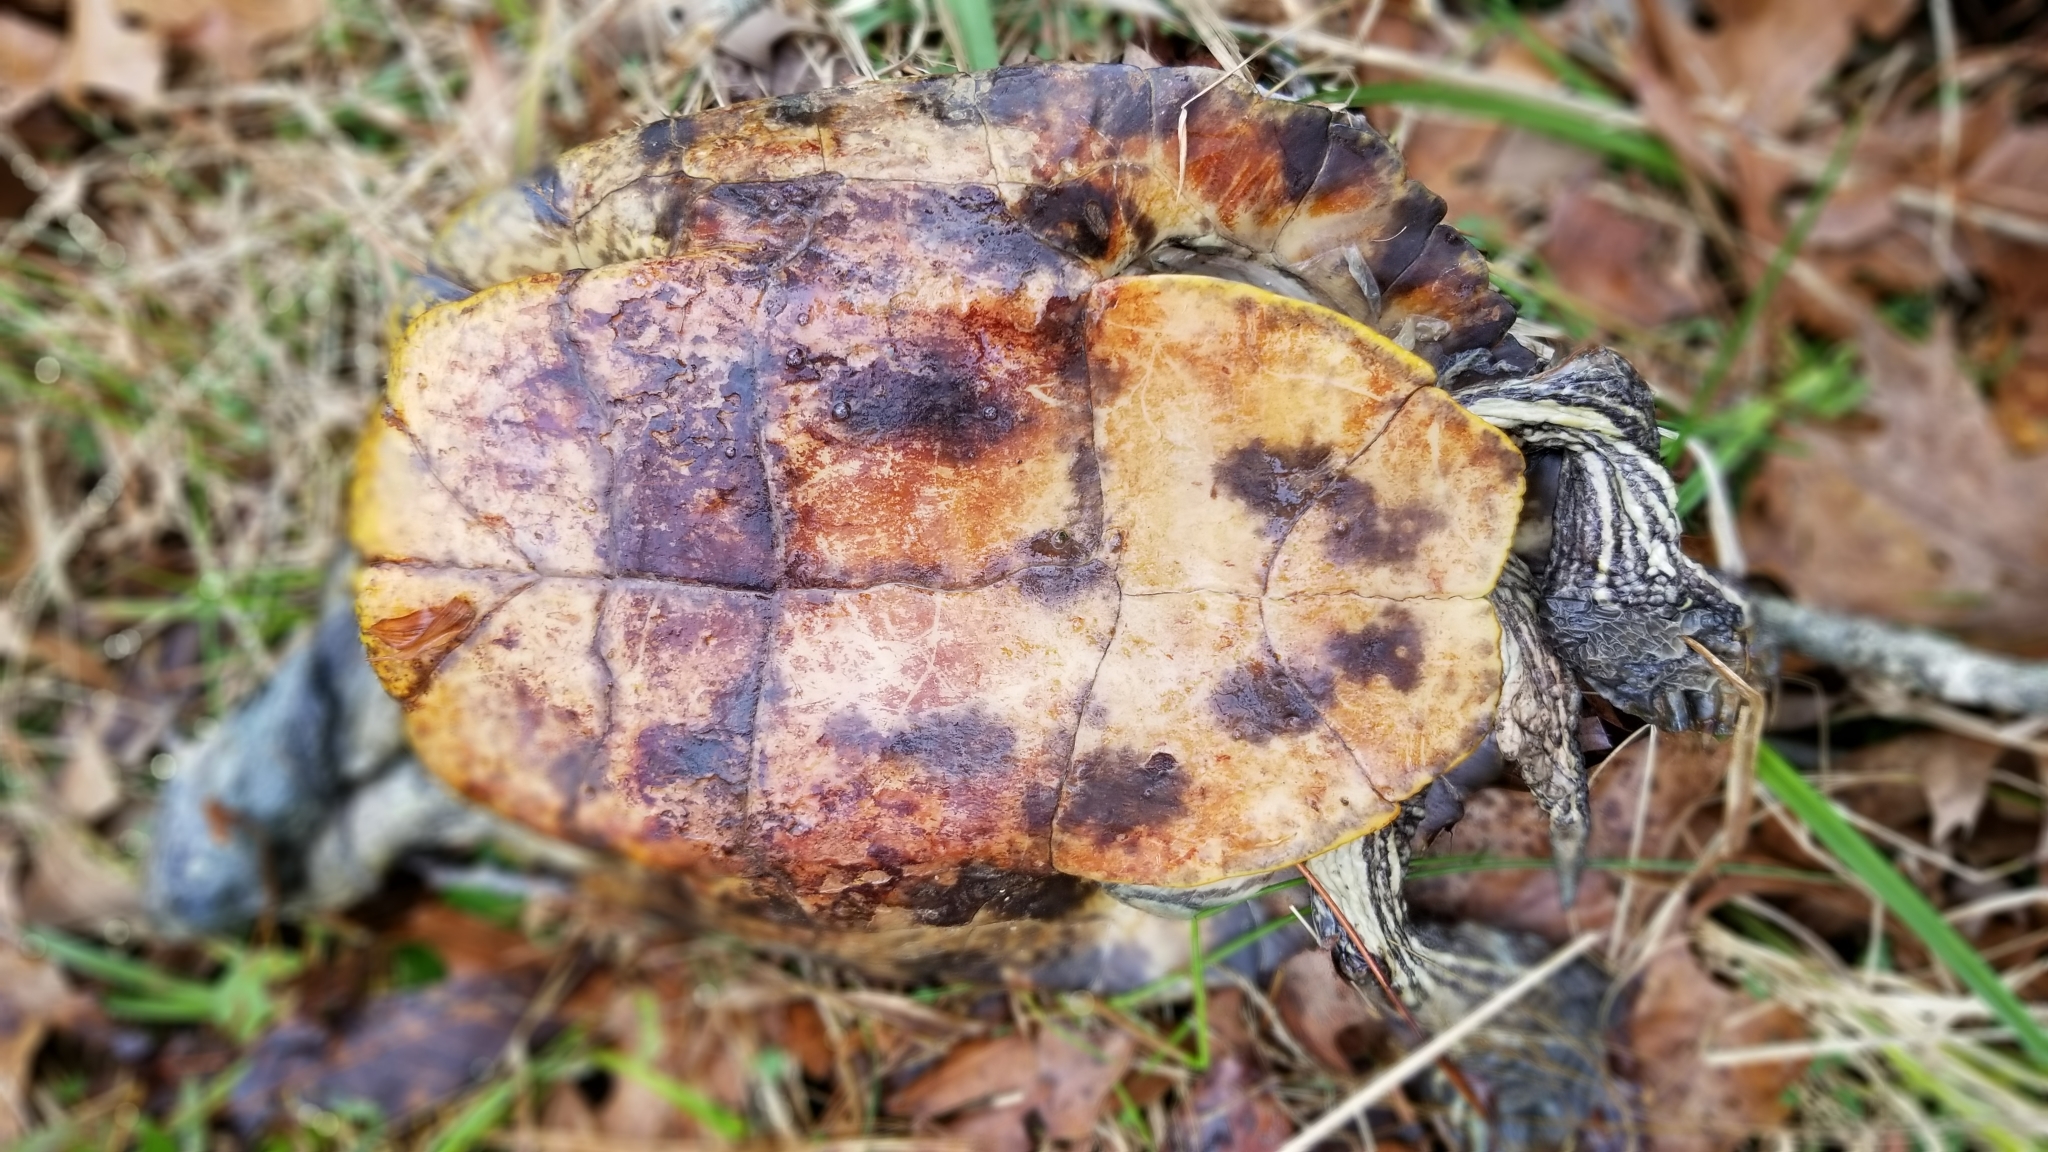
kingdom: Animalia
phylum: Chordata
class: Testudines
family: Emydidae
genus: Trachemys
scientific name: Trachemys scripta
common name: Slider
